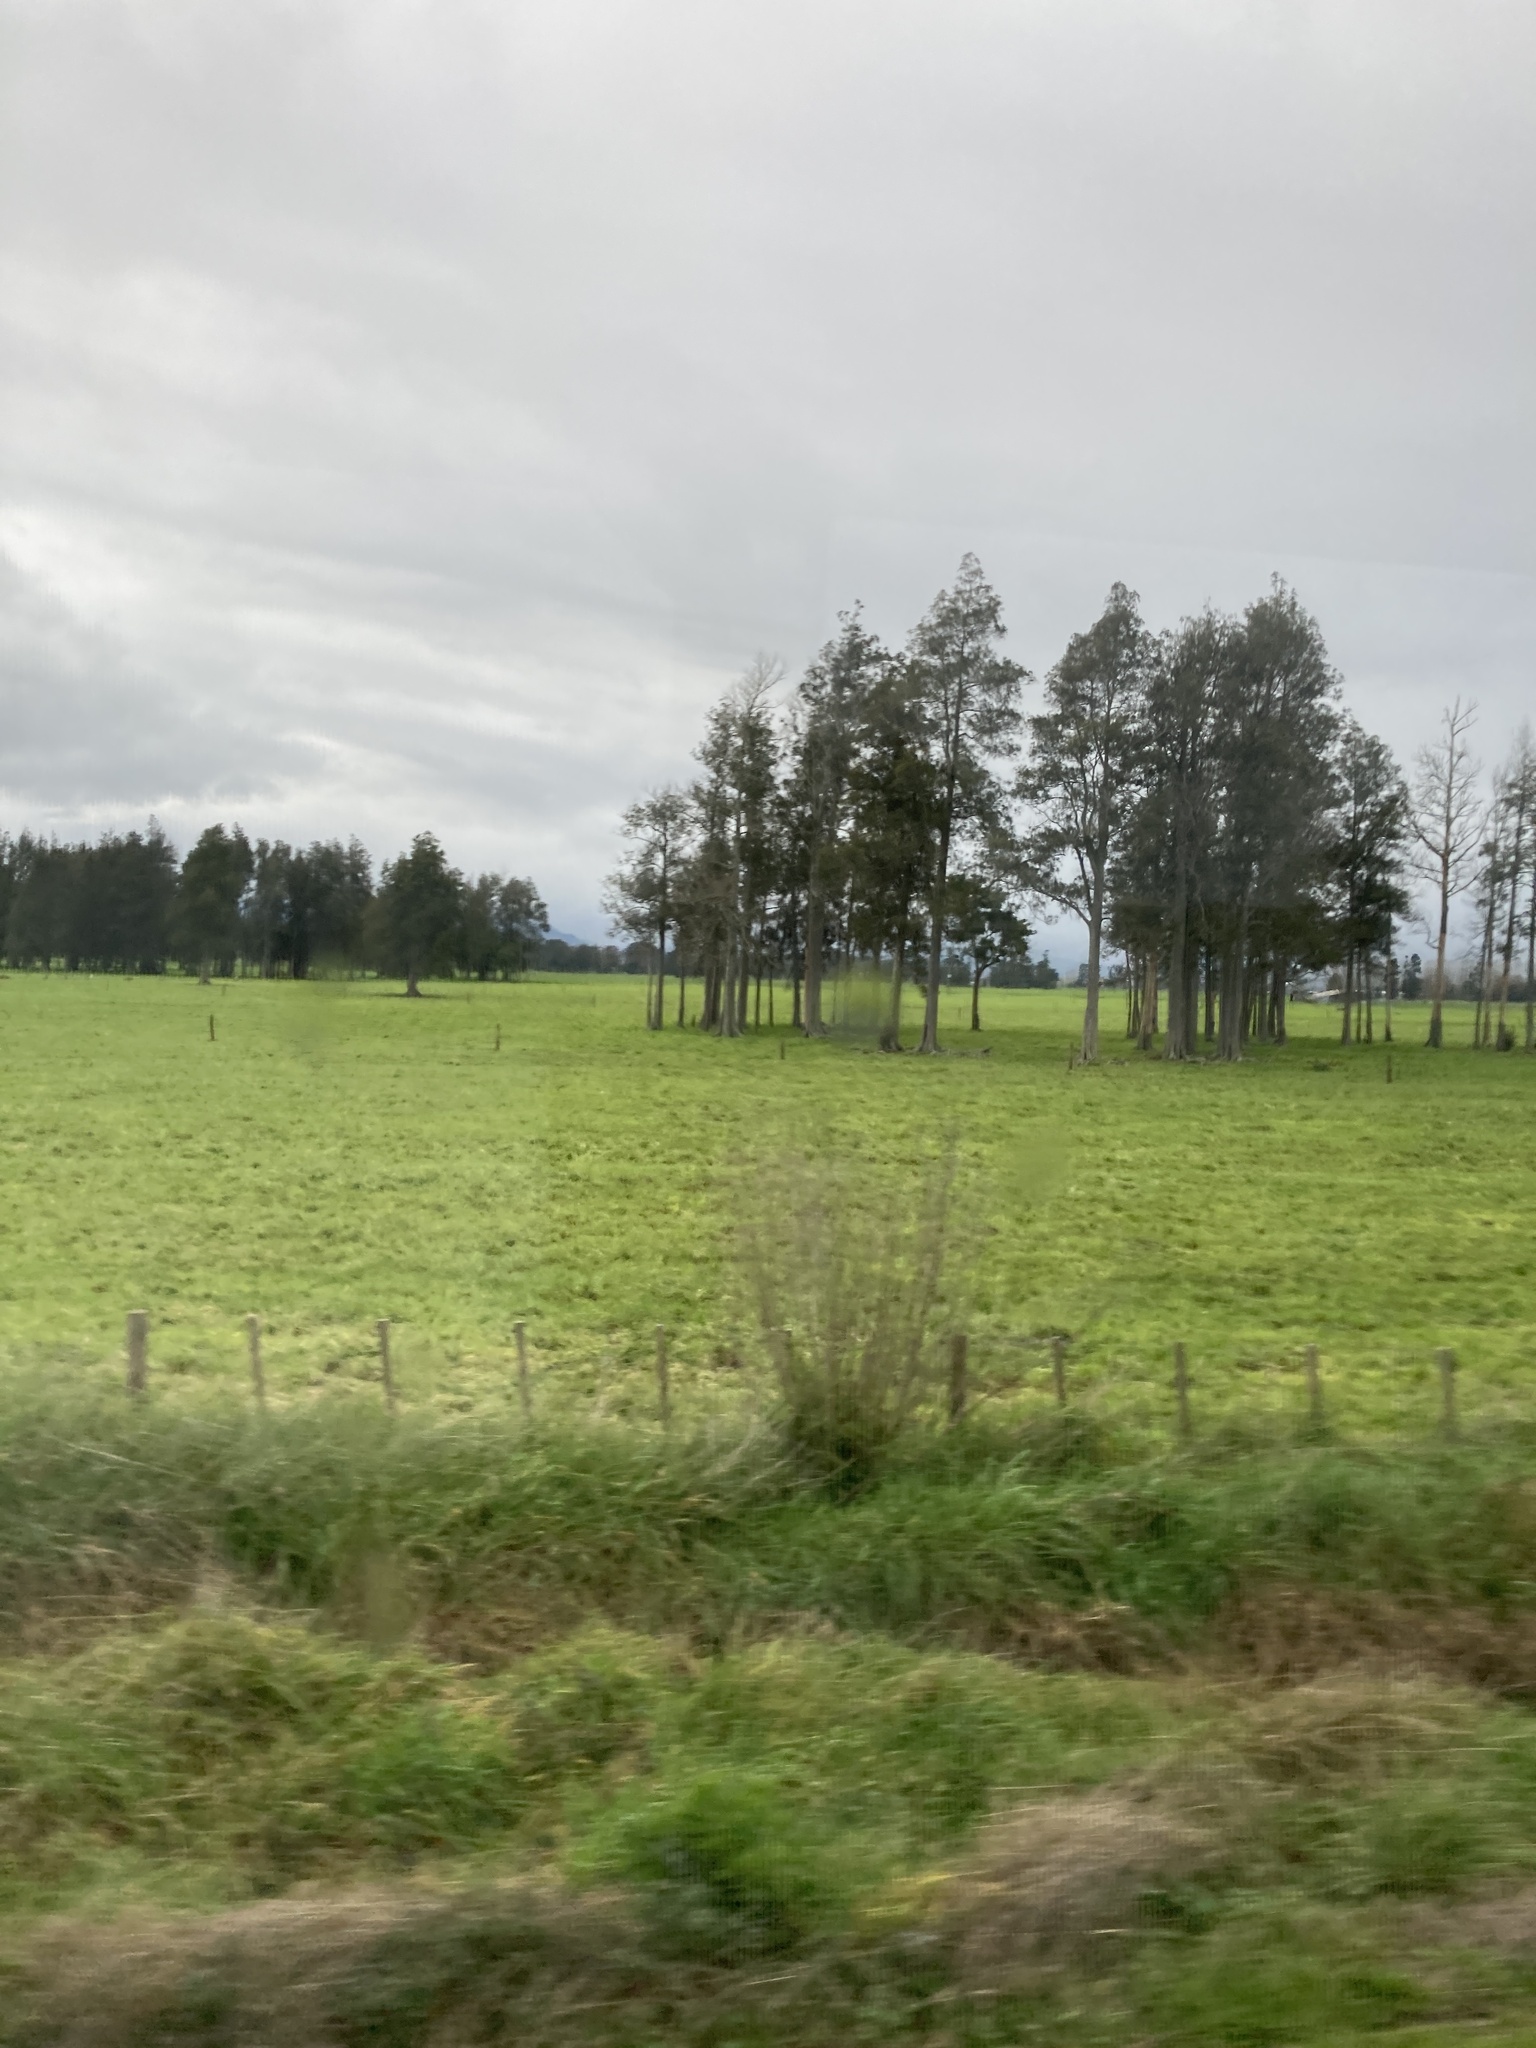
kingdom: Plantae
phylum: Tracheophyta
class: Pinopsida
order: Pinales
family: Podocarpaceae
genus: Dacrycarpus
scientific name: Dacrycarpus dacrydioides
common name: White pine
